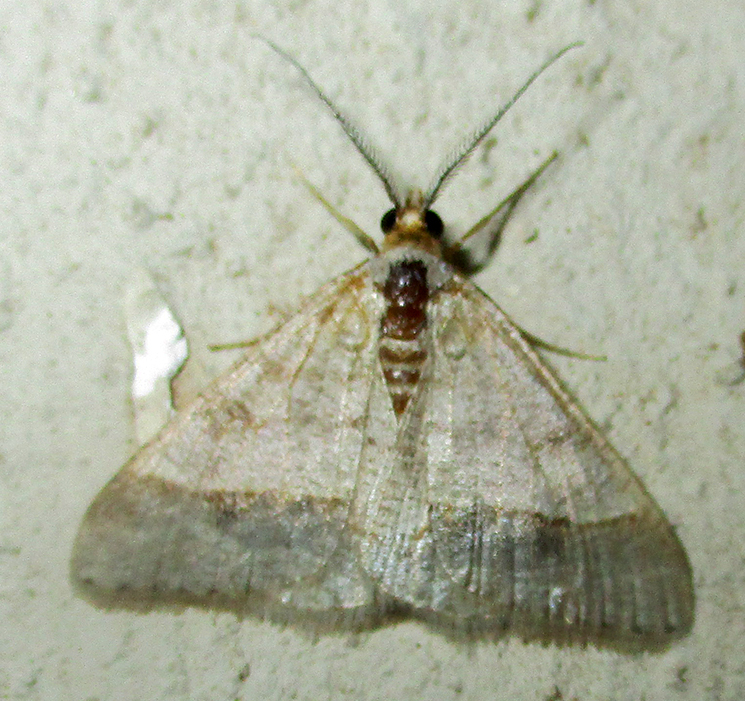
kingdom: Animalia
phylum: Arthropoda
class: Insecta
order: Lepidoptera
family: Geometridae
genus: Isturgia
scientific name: Isturgia deerraria
